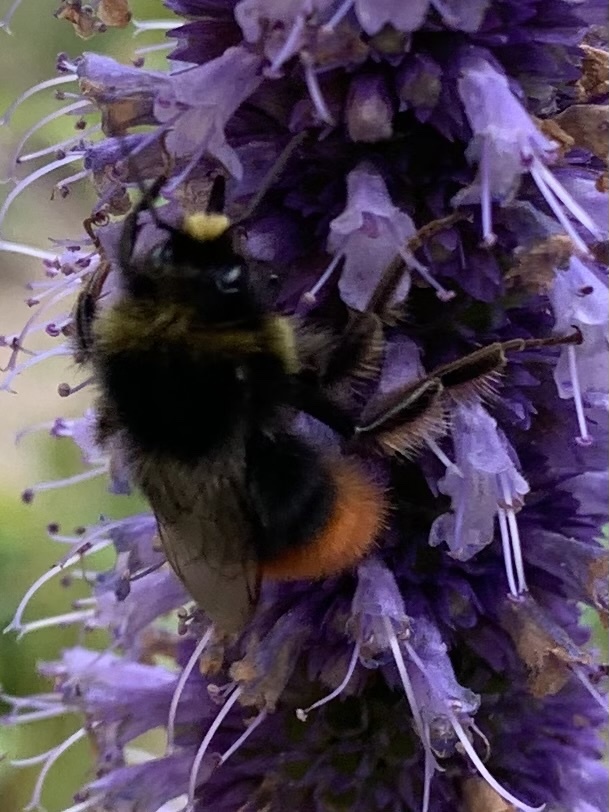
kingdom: Animalia
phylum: Arthropoda
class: Insecta
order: Hymenoptera
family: Apidae
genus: Bombus
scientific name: Bombus lapidarius
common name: Large red-tailed humble-bee
